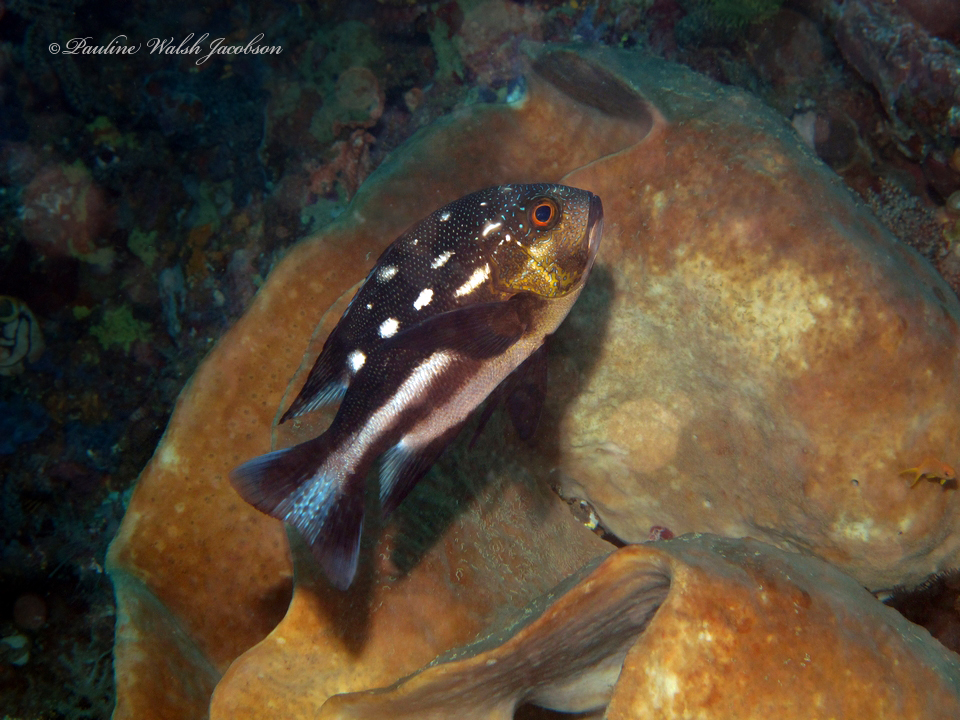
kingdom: Animalia
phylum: Chordata
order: Perciformes
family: Lutjanidae
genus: Macolor
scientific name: Macolor macularis
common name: Midnight snapper
